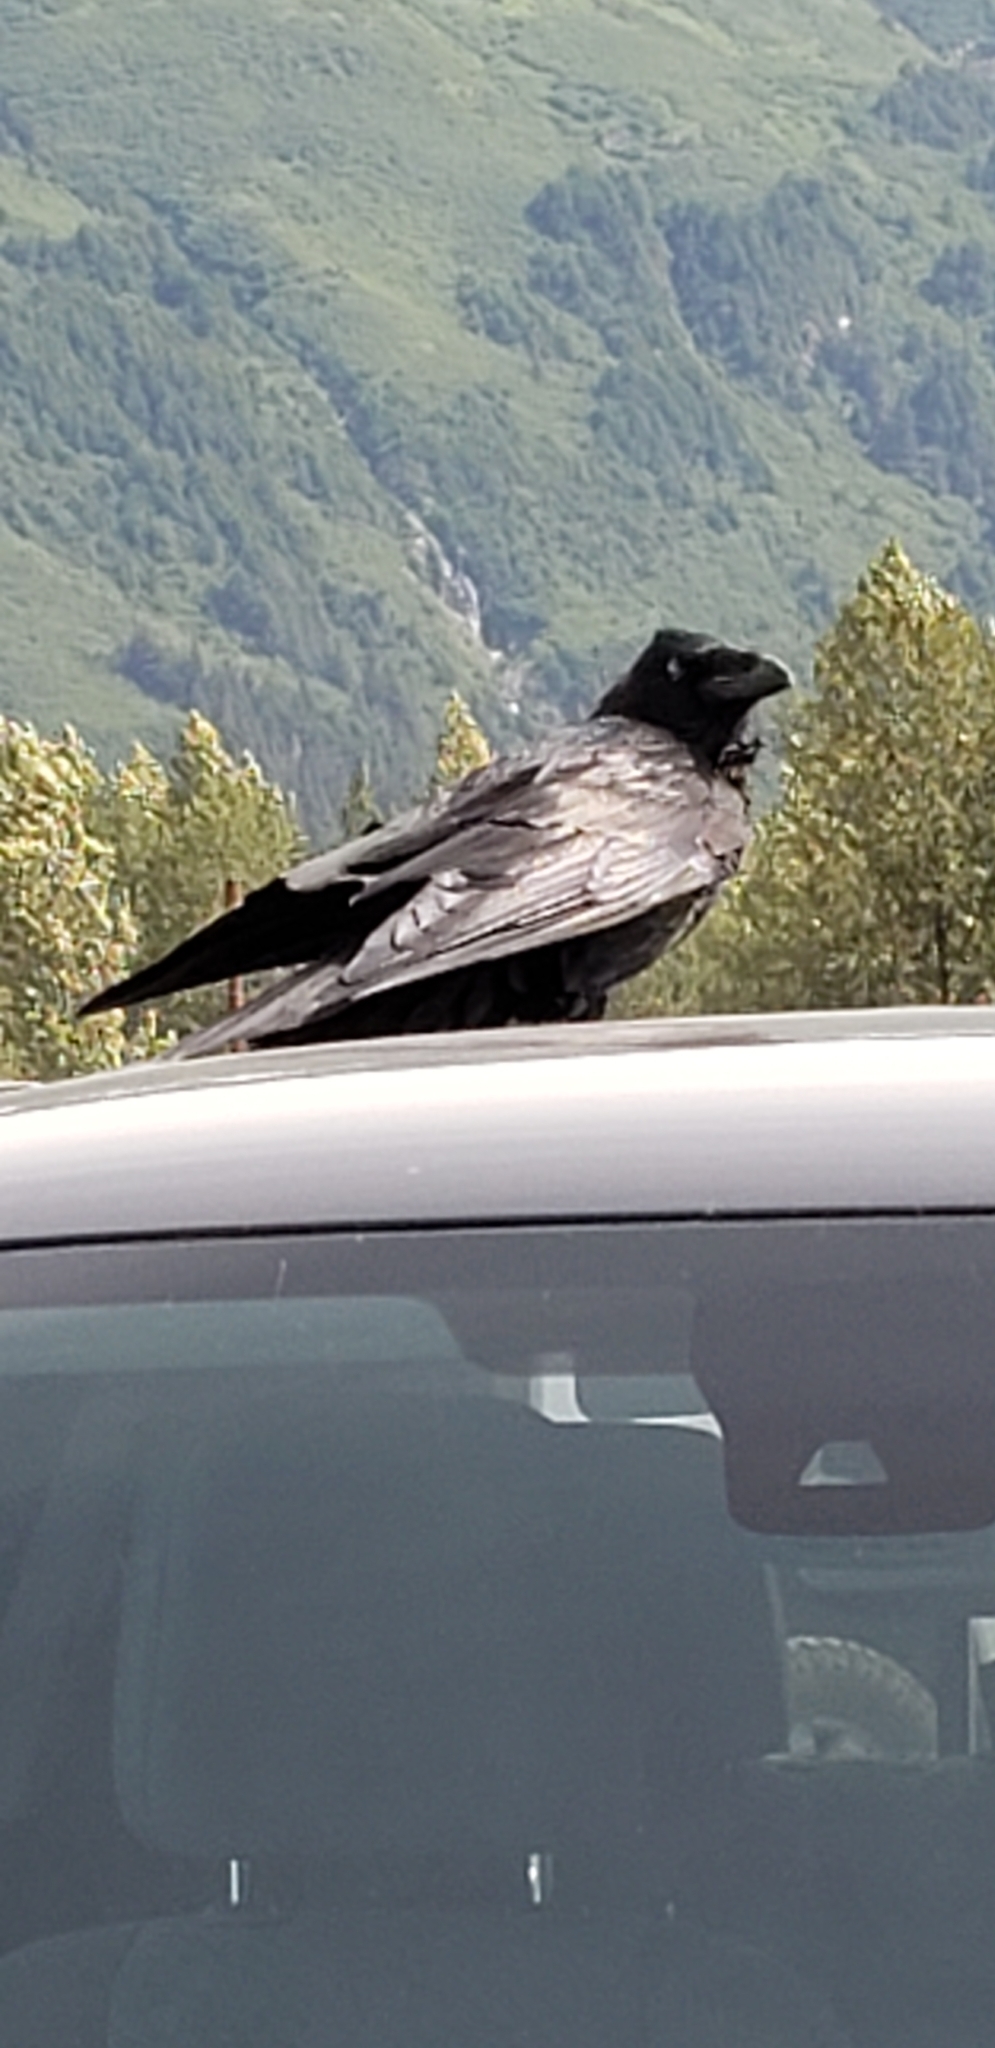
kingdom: Animalia
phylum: Chordata
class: Aves
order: Passeriformes
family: Corvidae
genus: Corvus
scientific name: Corvus corax
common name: Common raven
